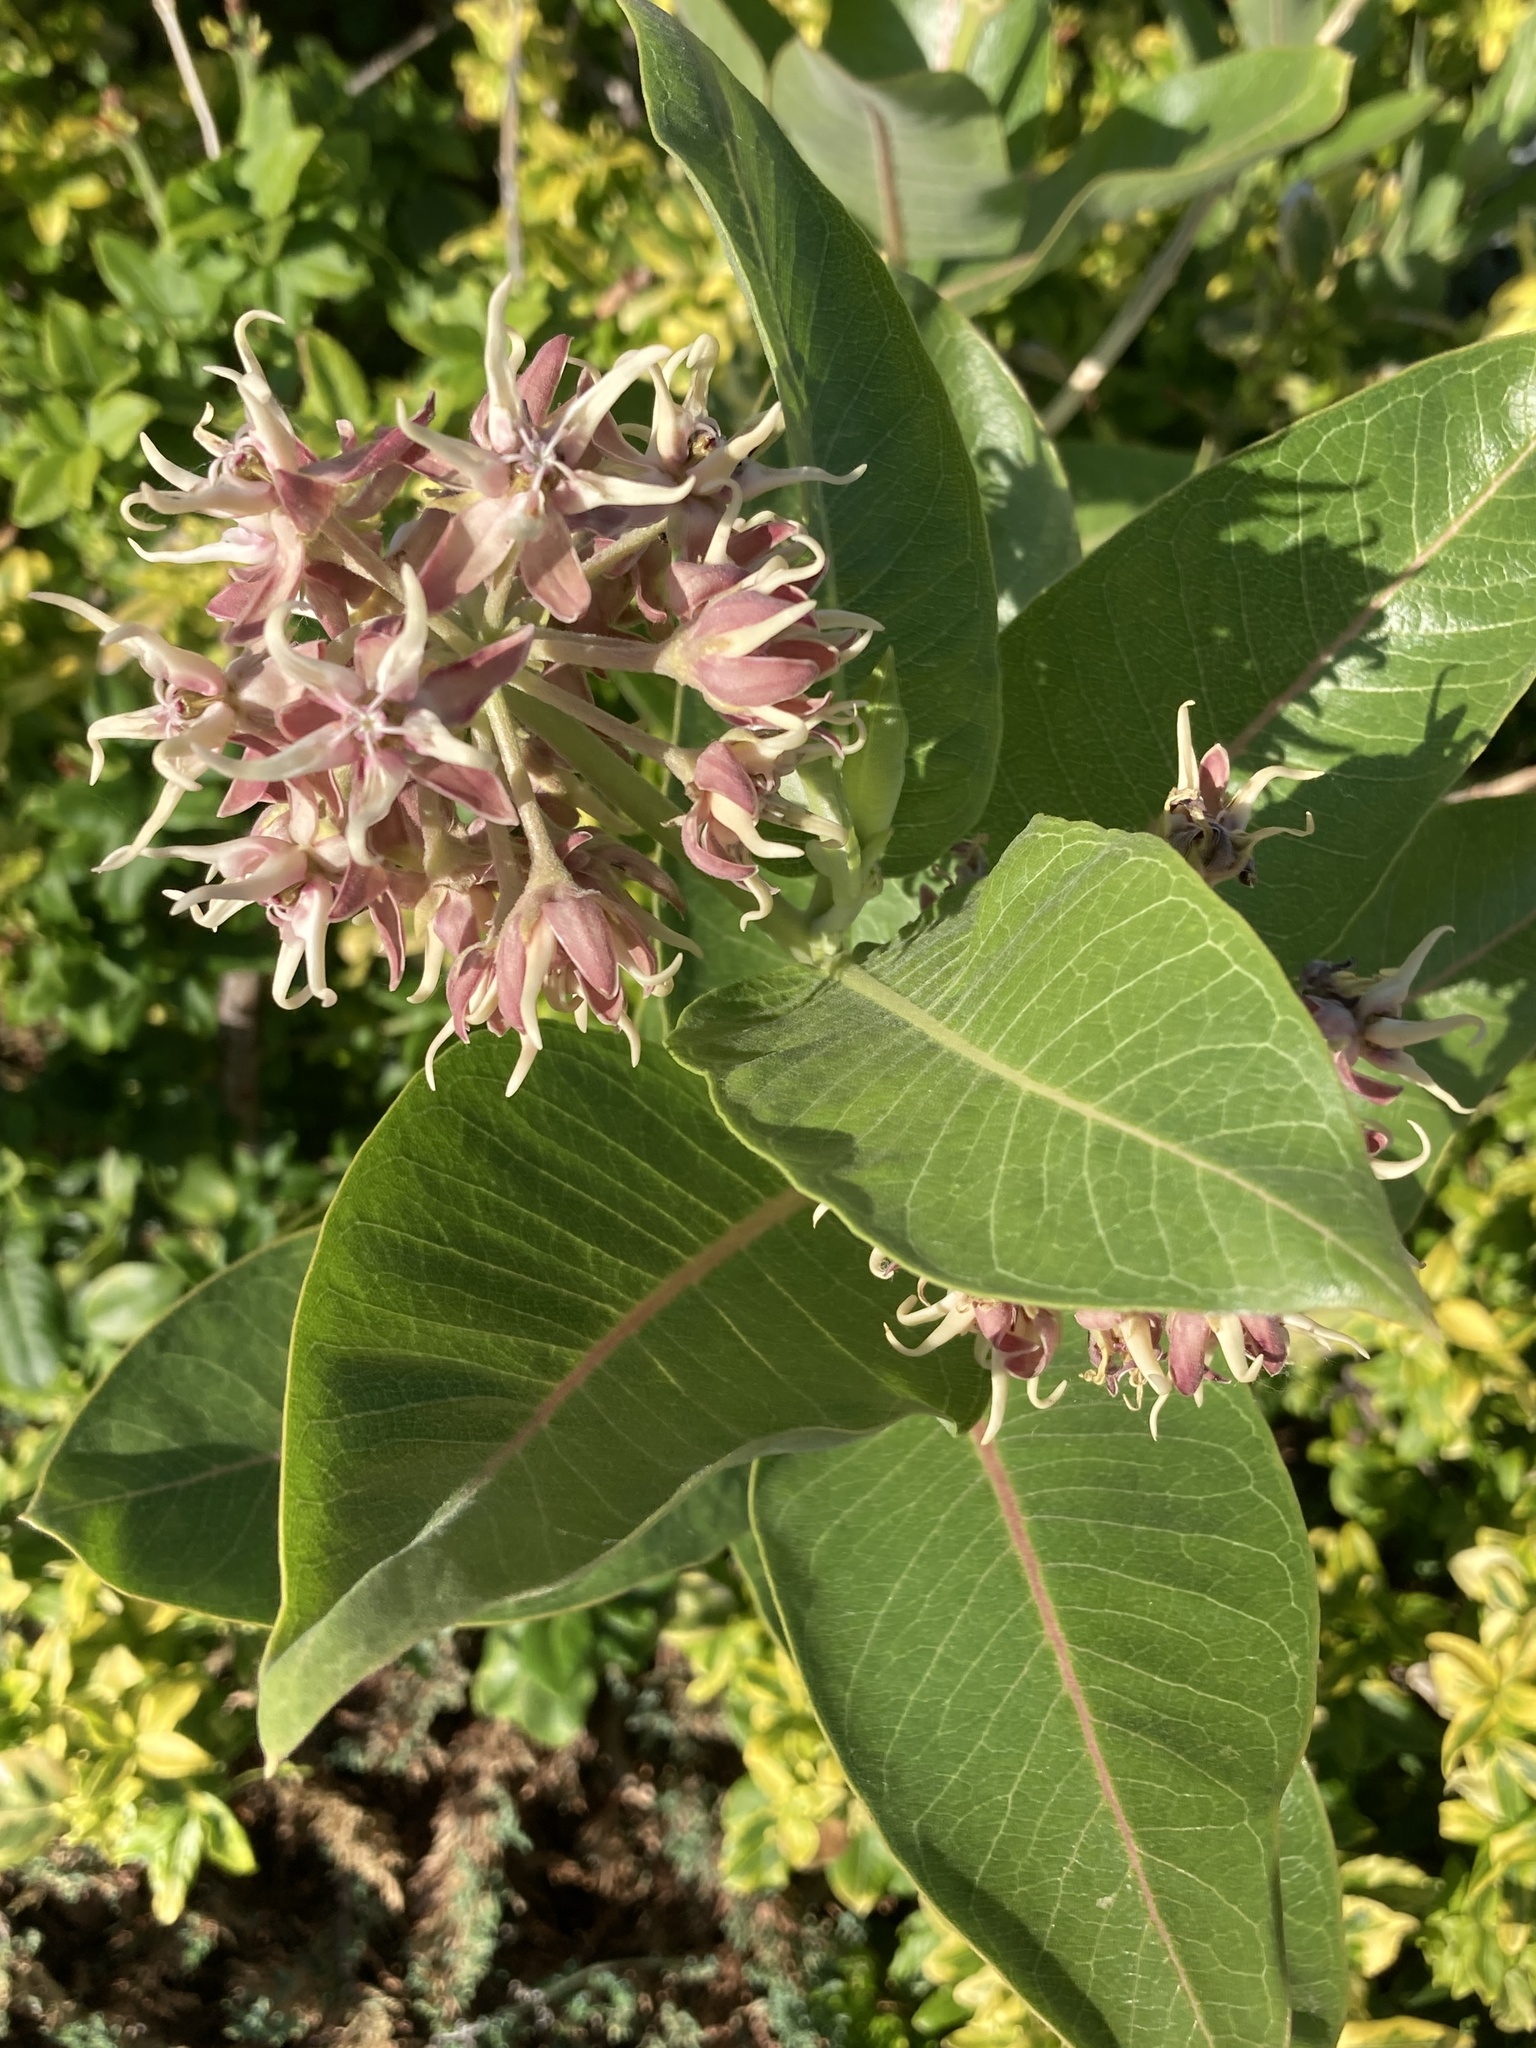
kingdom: Plantae
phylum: Tracheophyta
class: Magnoliopsida
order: Gentianales
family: Apocynaceae
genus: Asclepias
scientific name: Asclepias speciosa
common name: Showy milkweed
